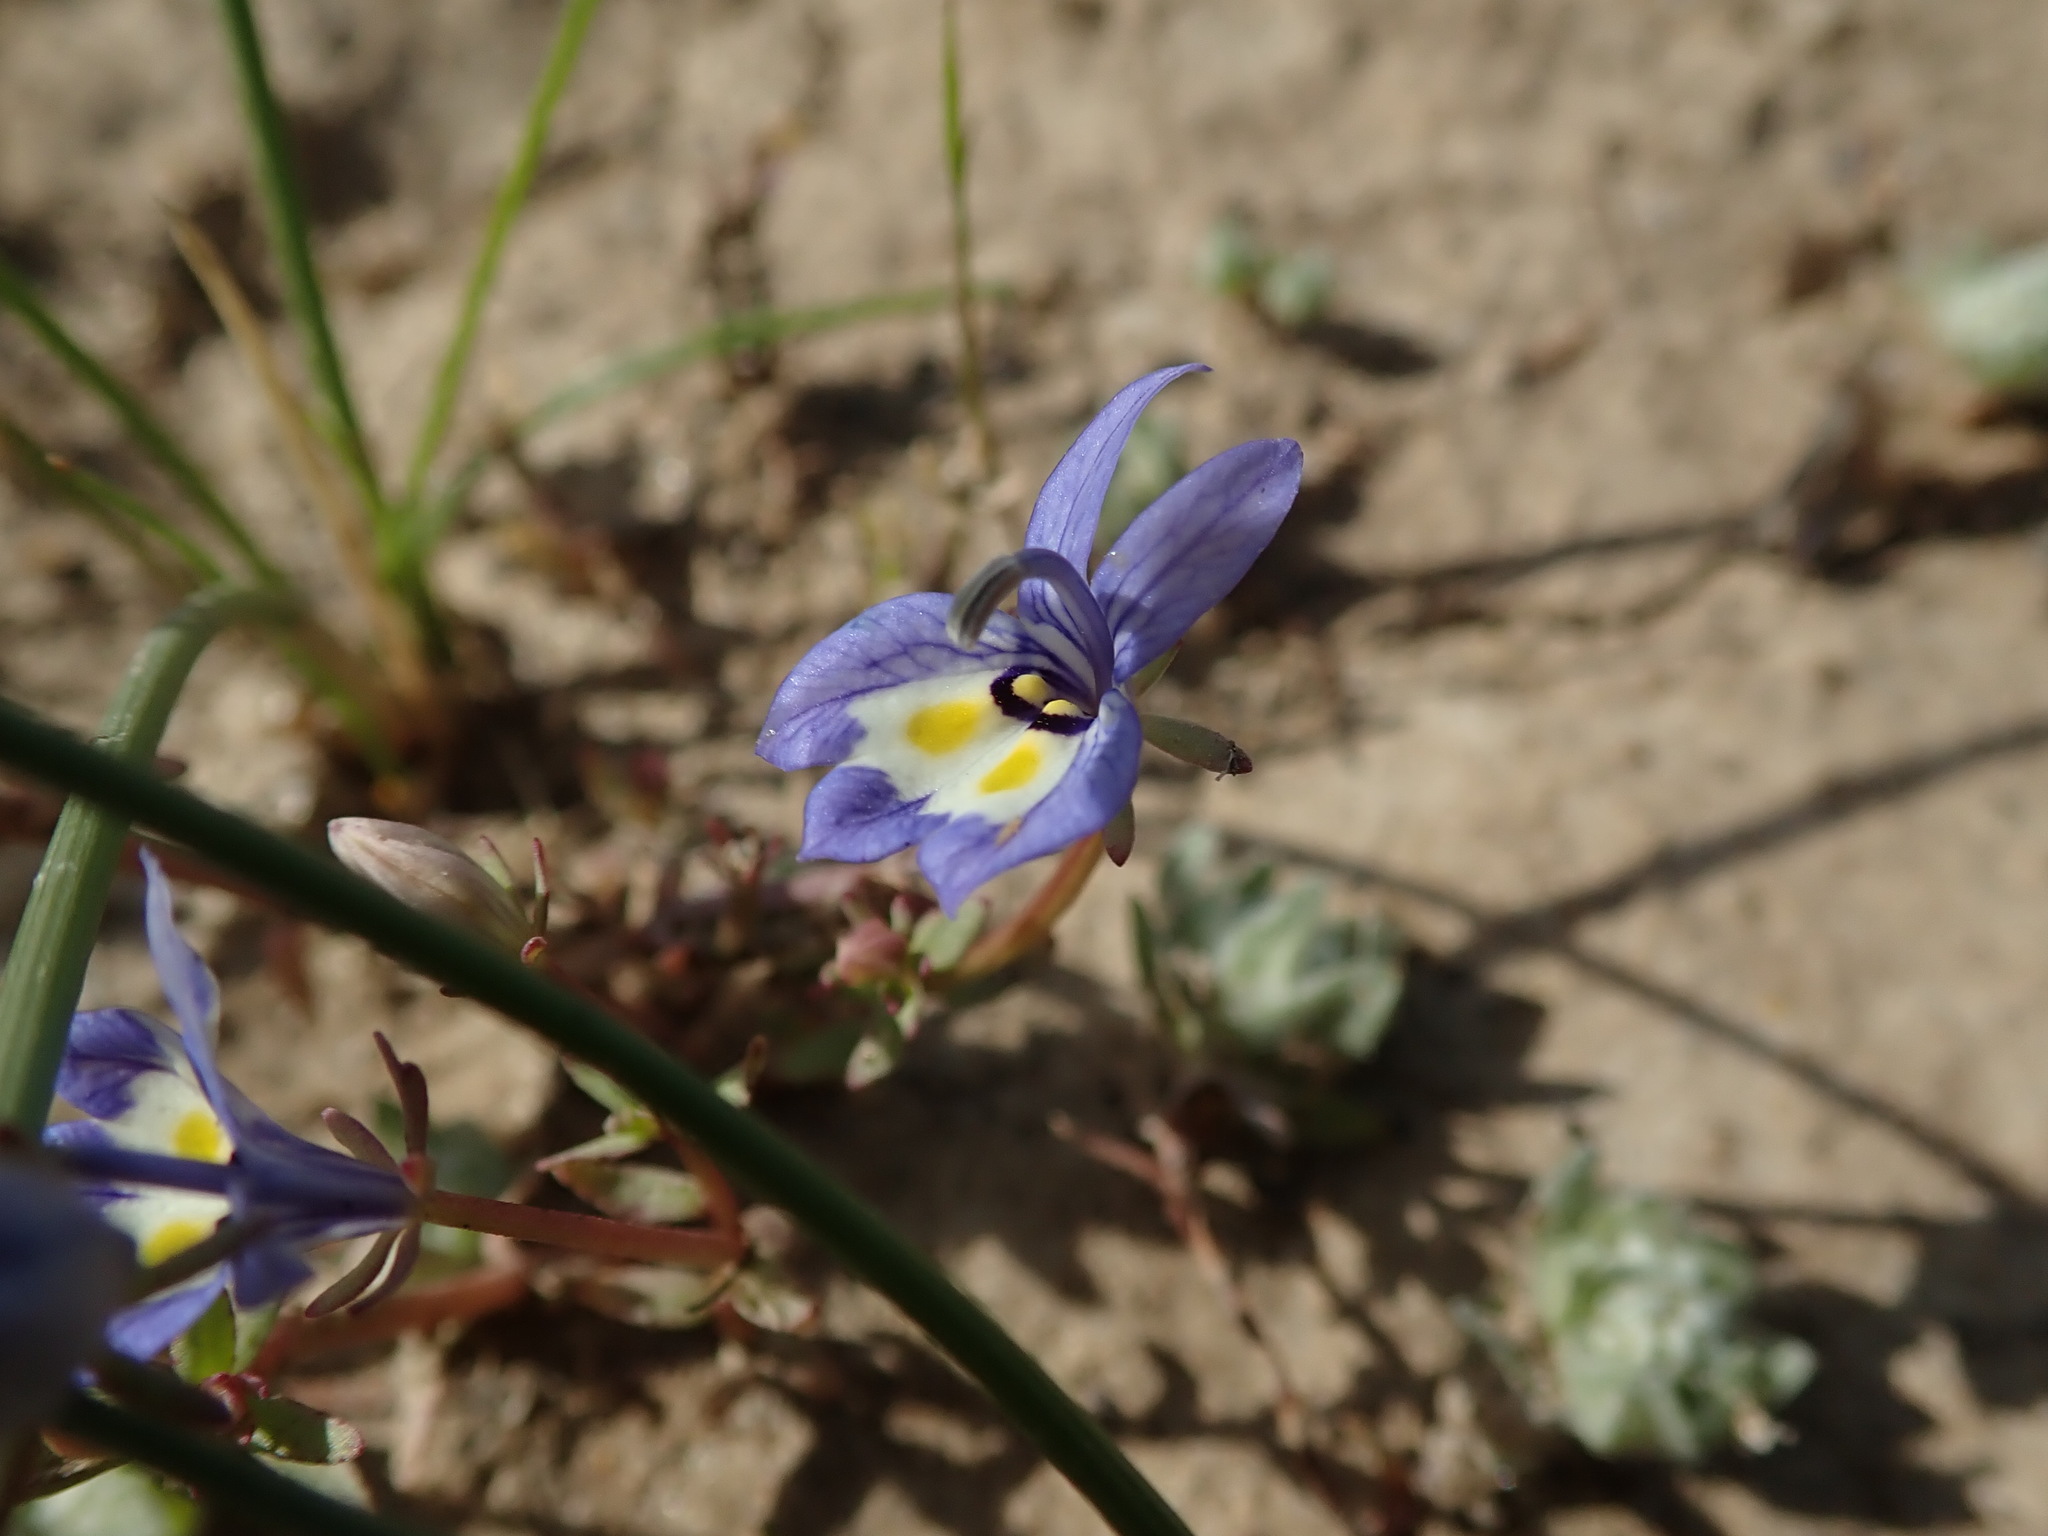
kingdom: Plantae
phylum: Tracheophyta
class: Magnoliopsida
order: Asterales
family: Campanulaceae
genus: Downingia
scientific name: Downingia insignis
